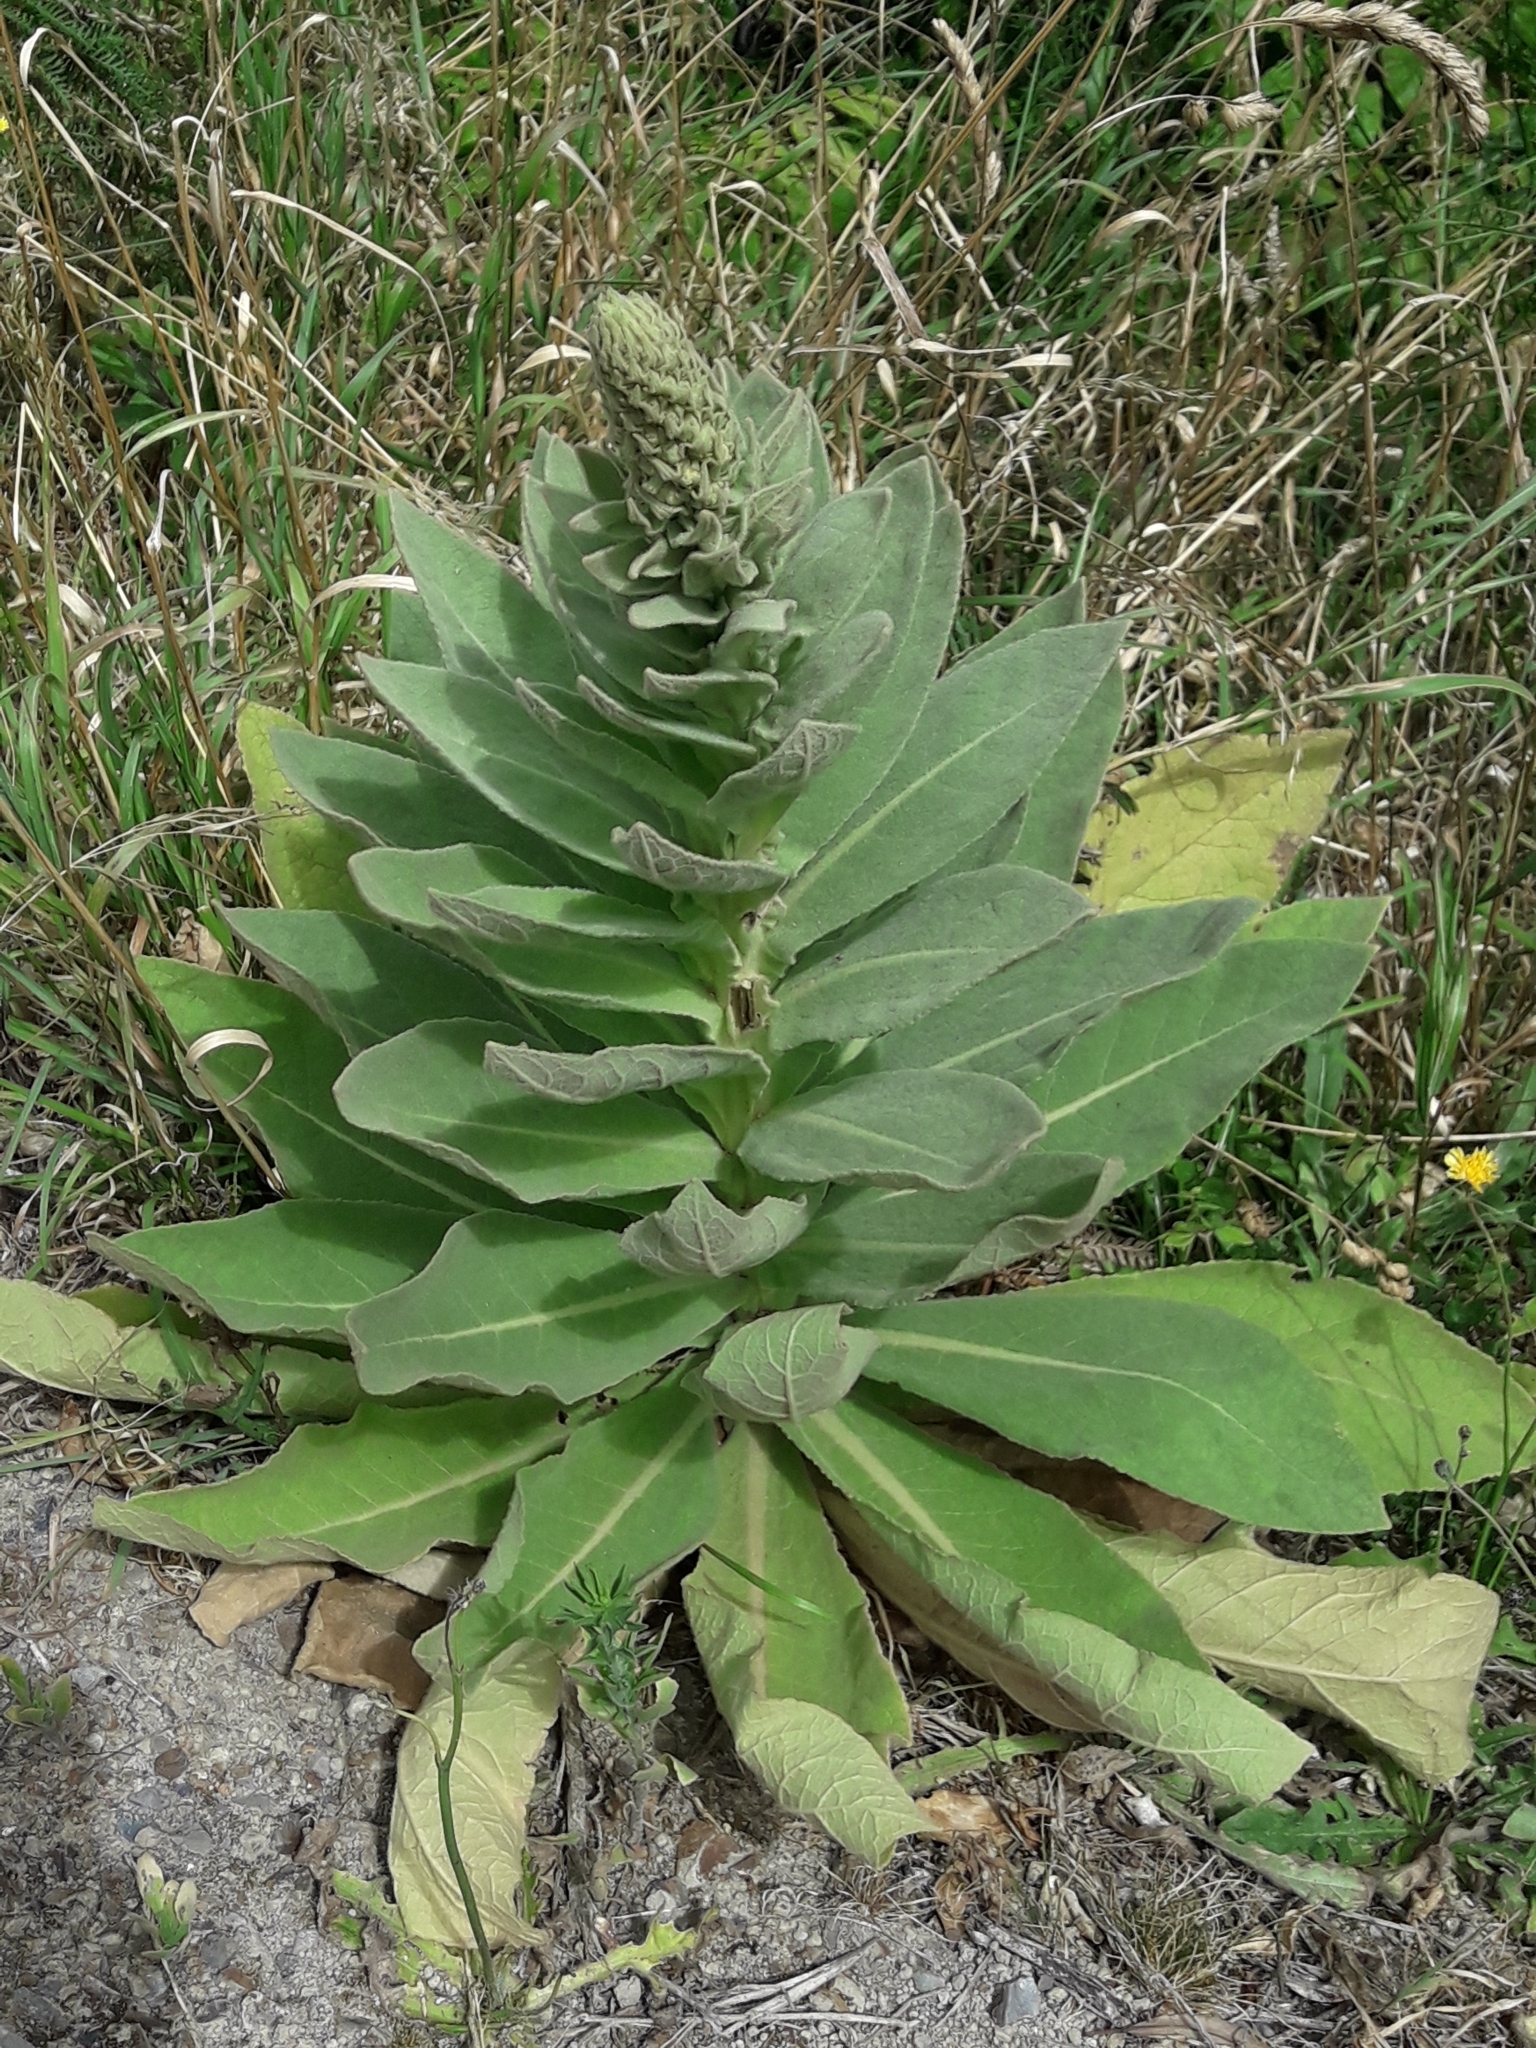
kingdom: Plantae
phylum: Tracheophyta
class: Magnoliopsida
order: Lamiales
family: Scrophulariaceae
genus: Verbascum
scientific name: Verbascum thapsus
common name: Common mullein
